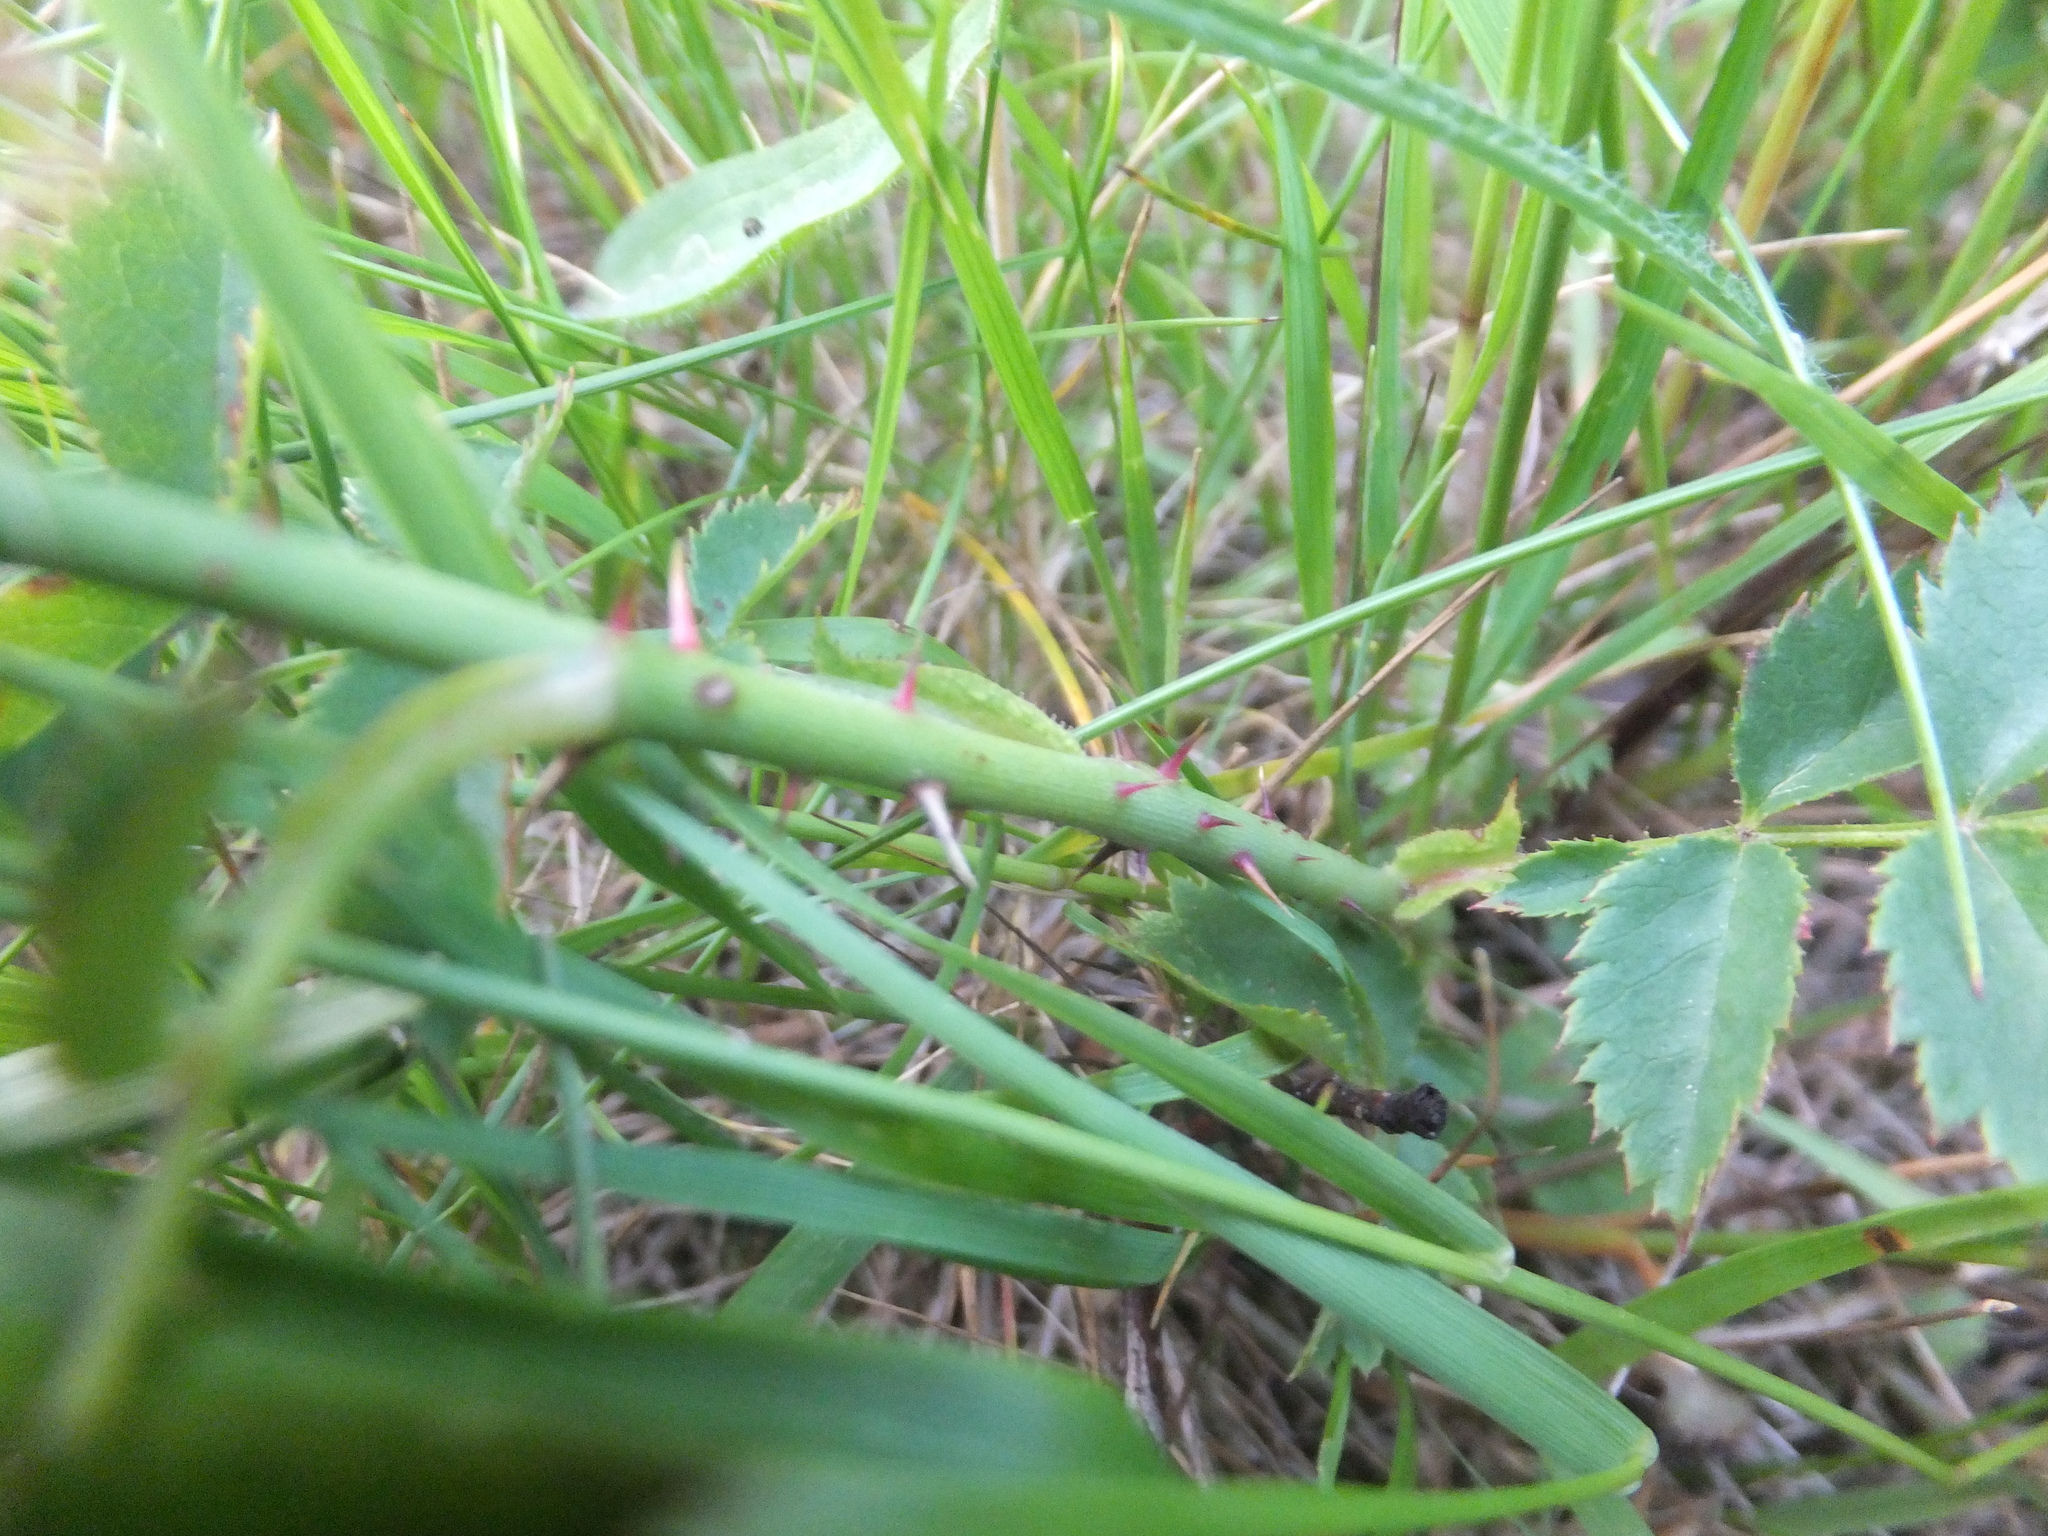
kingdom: Animalia
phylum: Arthropoda
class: Insecta
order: Hymenoptera
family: Cynipidae
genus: Diplolepis
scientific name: Diplolepis rosae
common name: Bedeguar gall
